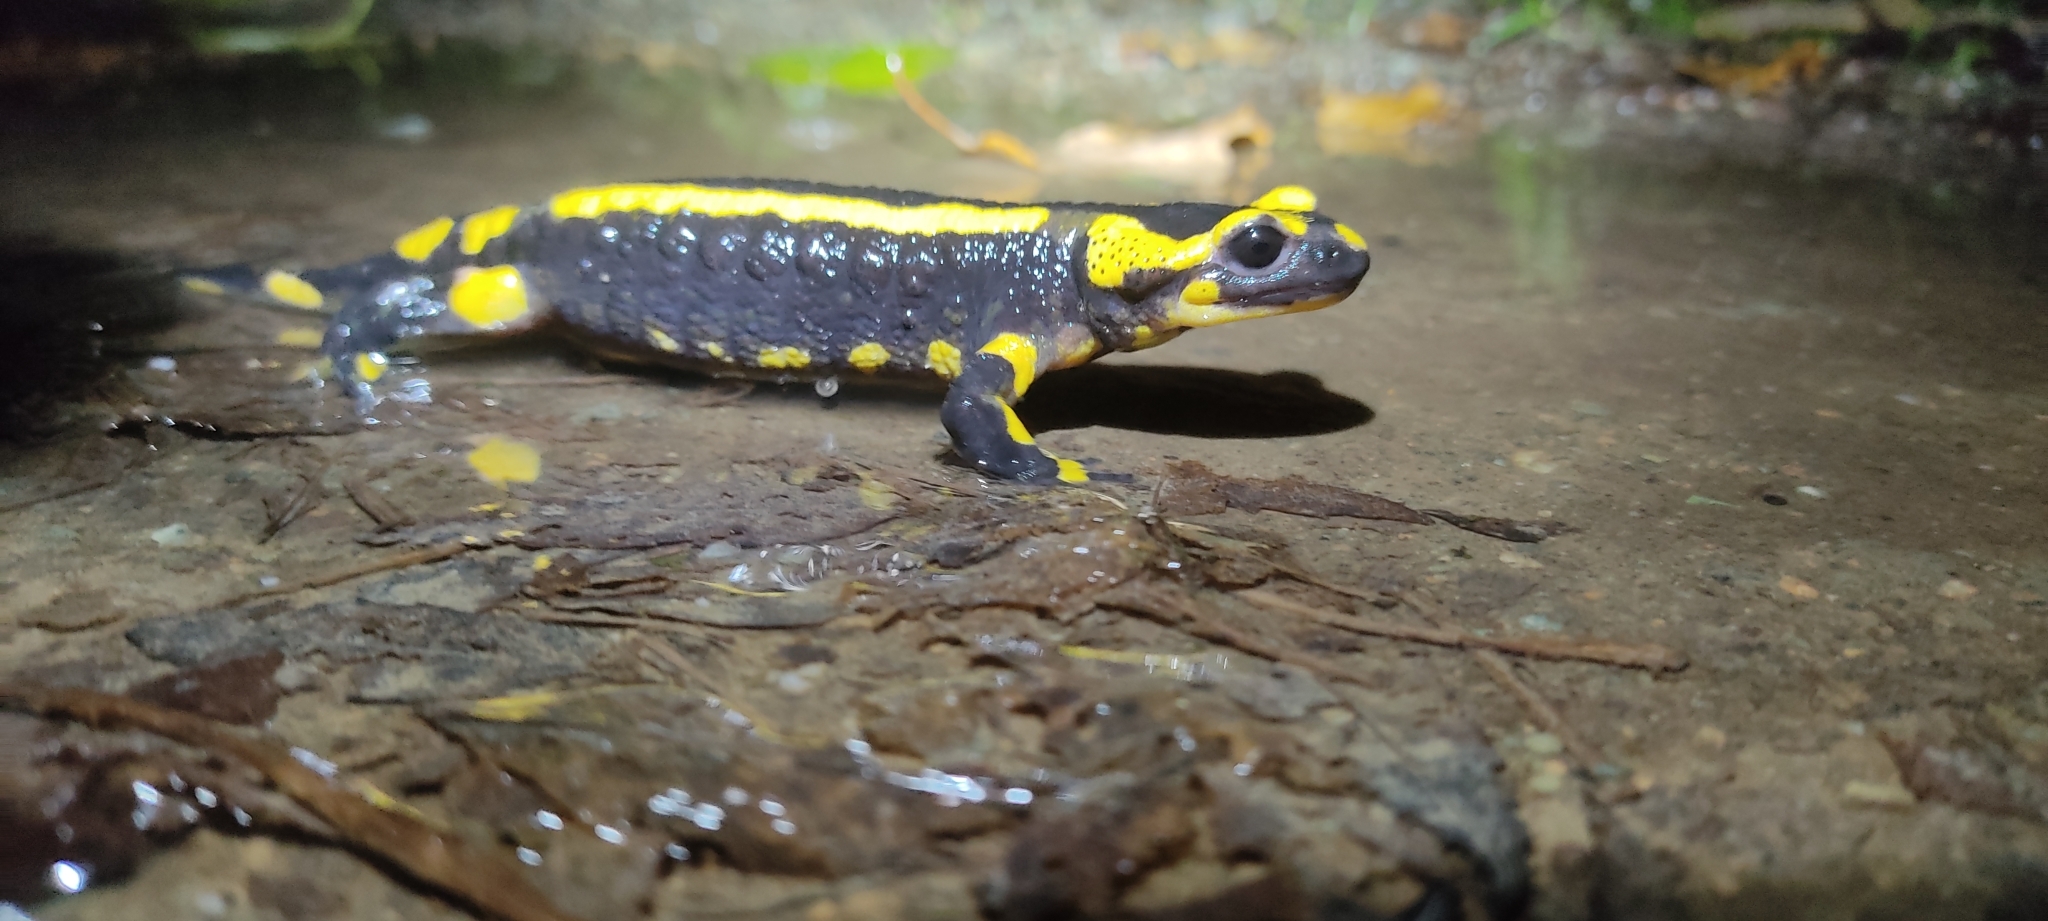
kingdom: Animalia
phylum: Chordata
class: Amphibia
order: Caudata
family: Salamandridae
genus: Salamandra
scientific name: Salamandra salamandra
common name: Fire salamander
